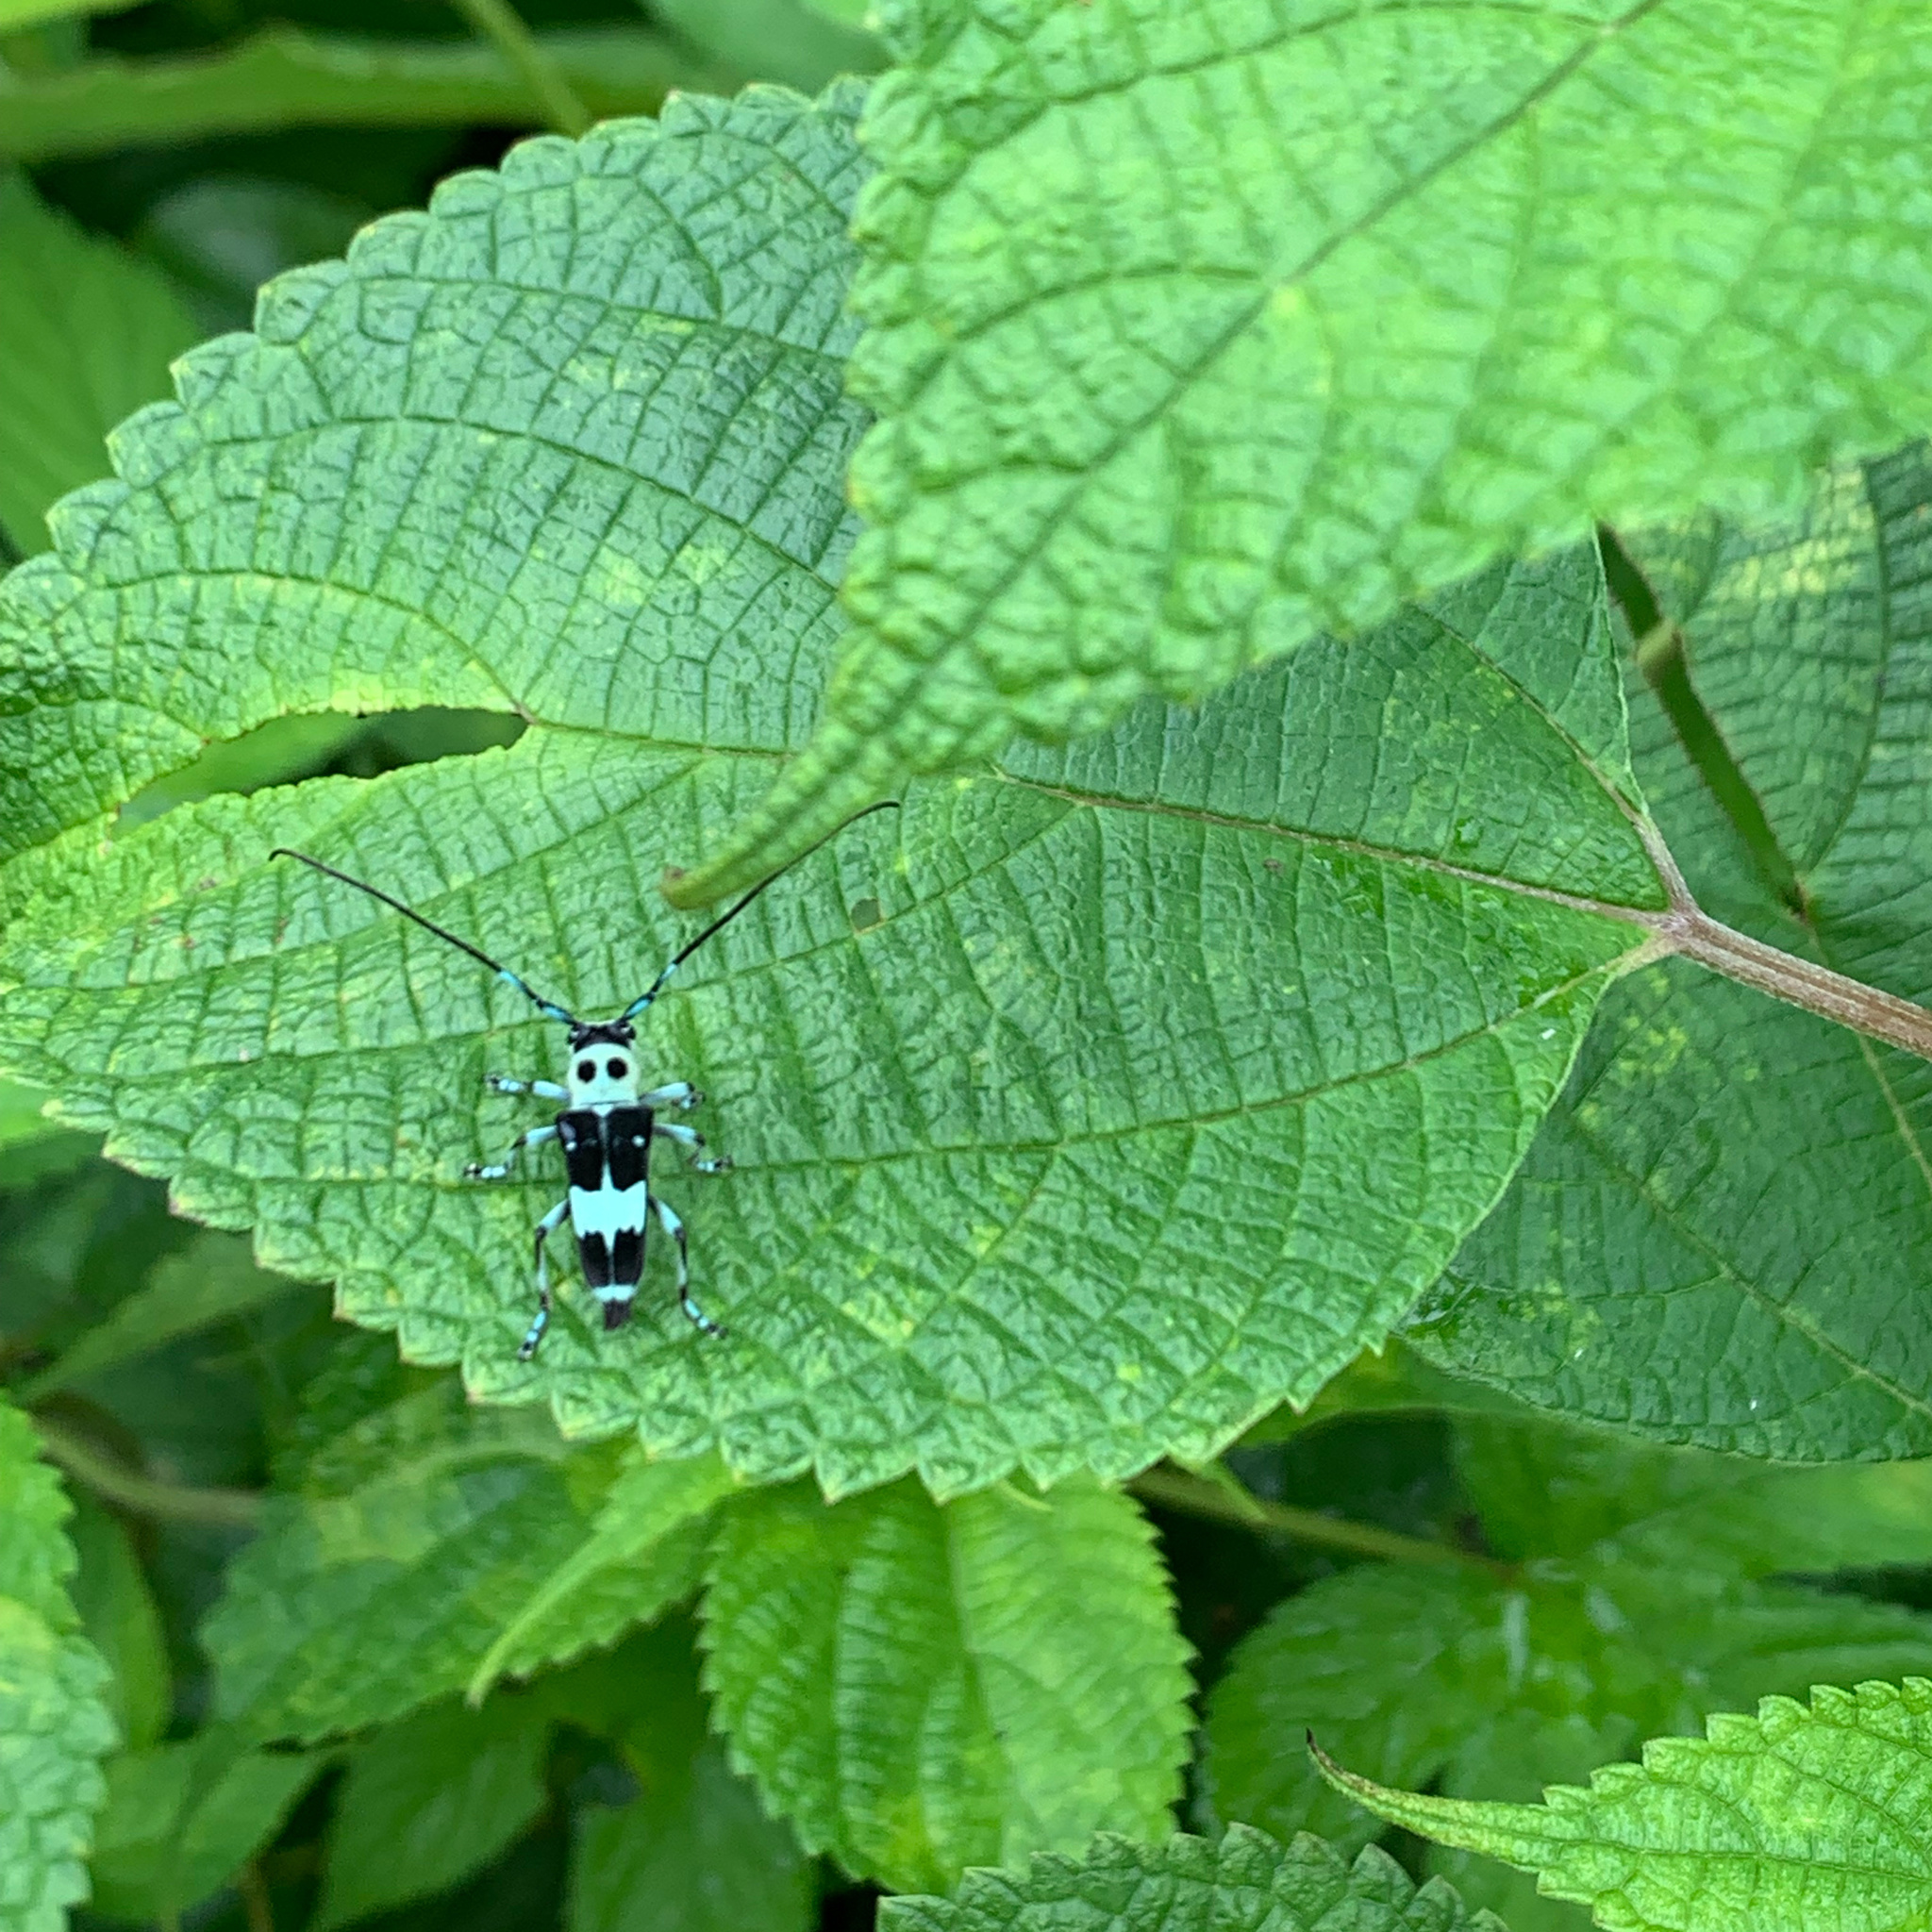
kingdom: Animalia
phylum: Arthropoda
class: Insecta
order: Coleoptera
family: Cerambycidae
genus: Paraglenea
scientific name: Paraglenea fortunei
